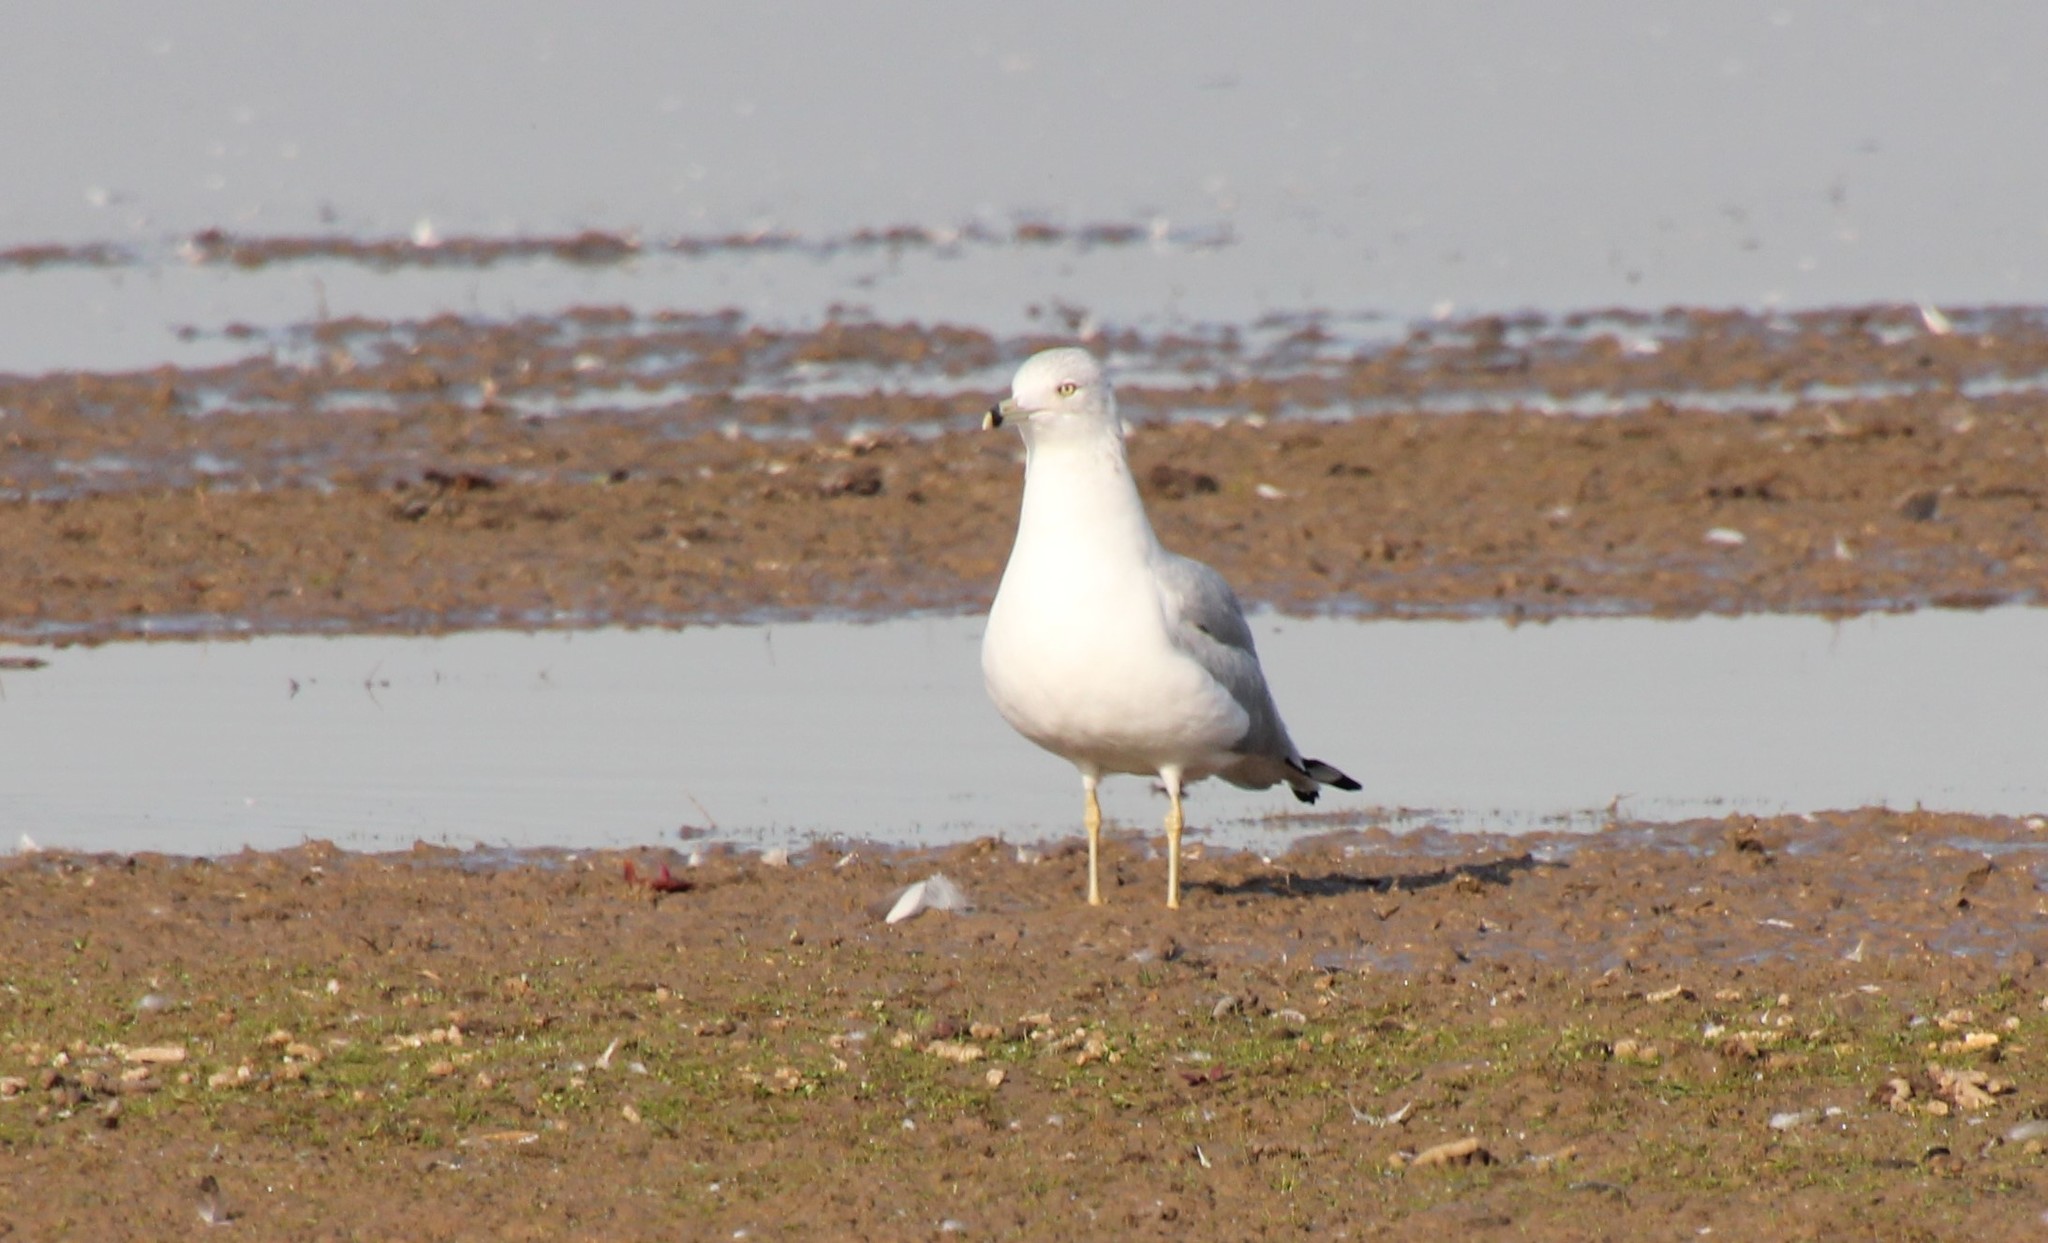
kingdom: Animalia
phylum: Chordata
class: Aves
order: Charadriiformes
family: Laridae
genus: Larus
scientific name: Larus delawarensis
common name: Ring-billed gull
